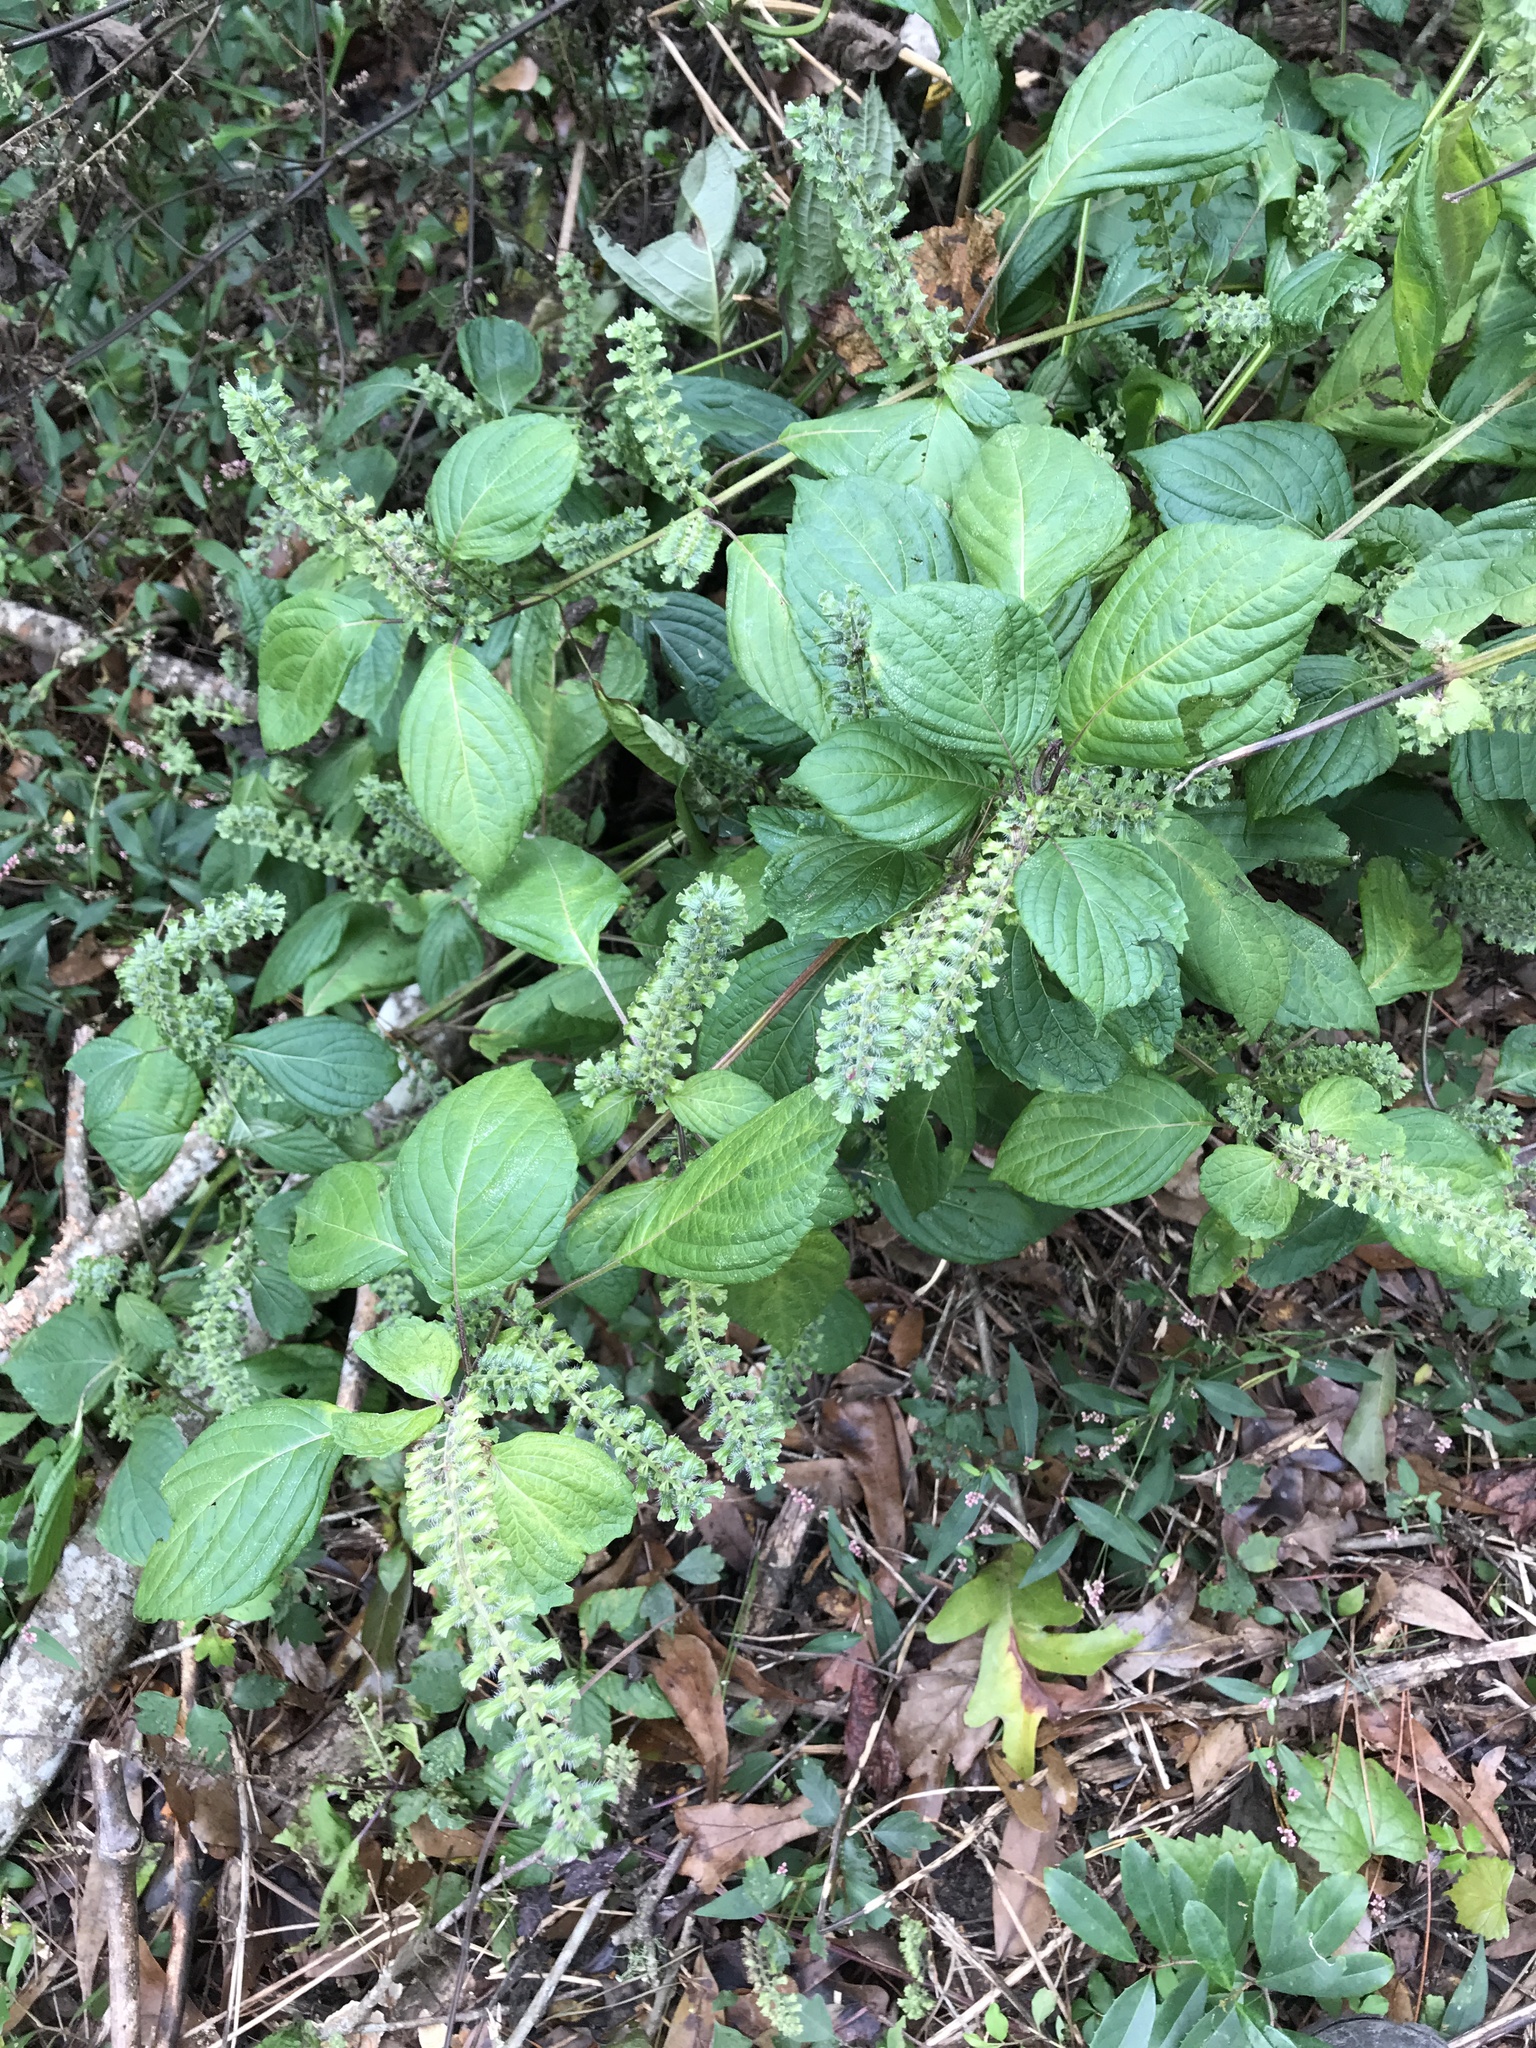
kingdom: Plantae
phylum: Tracheophyta
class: Magnoliopsida
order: Lamiales
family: Lamiaceae
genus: Perilla
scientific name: Perilla frutescens
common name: Perilla
